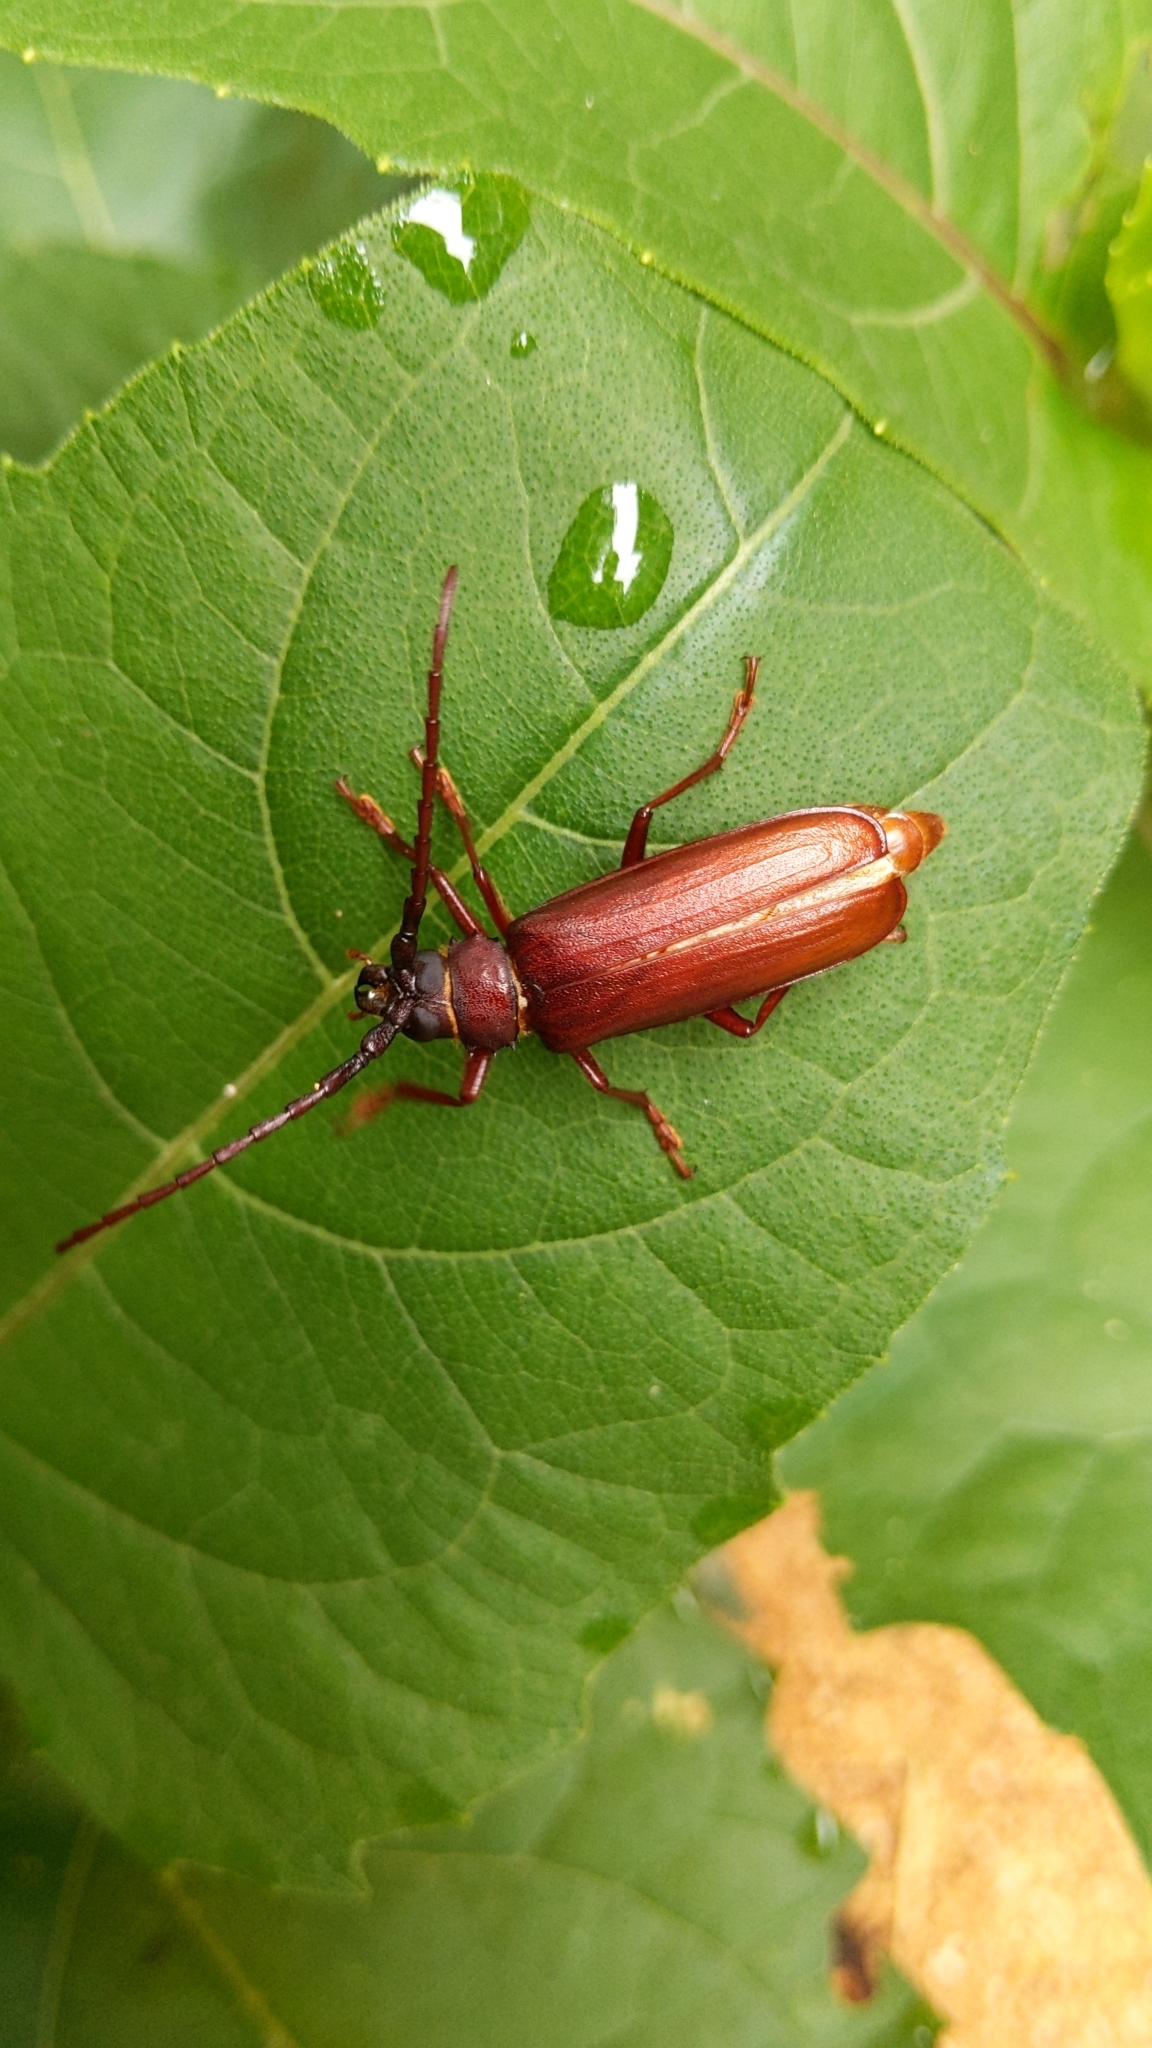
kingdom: Animalia
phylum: Arthropoda
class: Insecta
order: Coleoptera
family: Cerambycidae
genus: Orthosoma
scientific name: Orthosoma brunneum
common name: Brown prionid beetle
